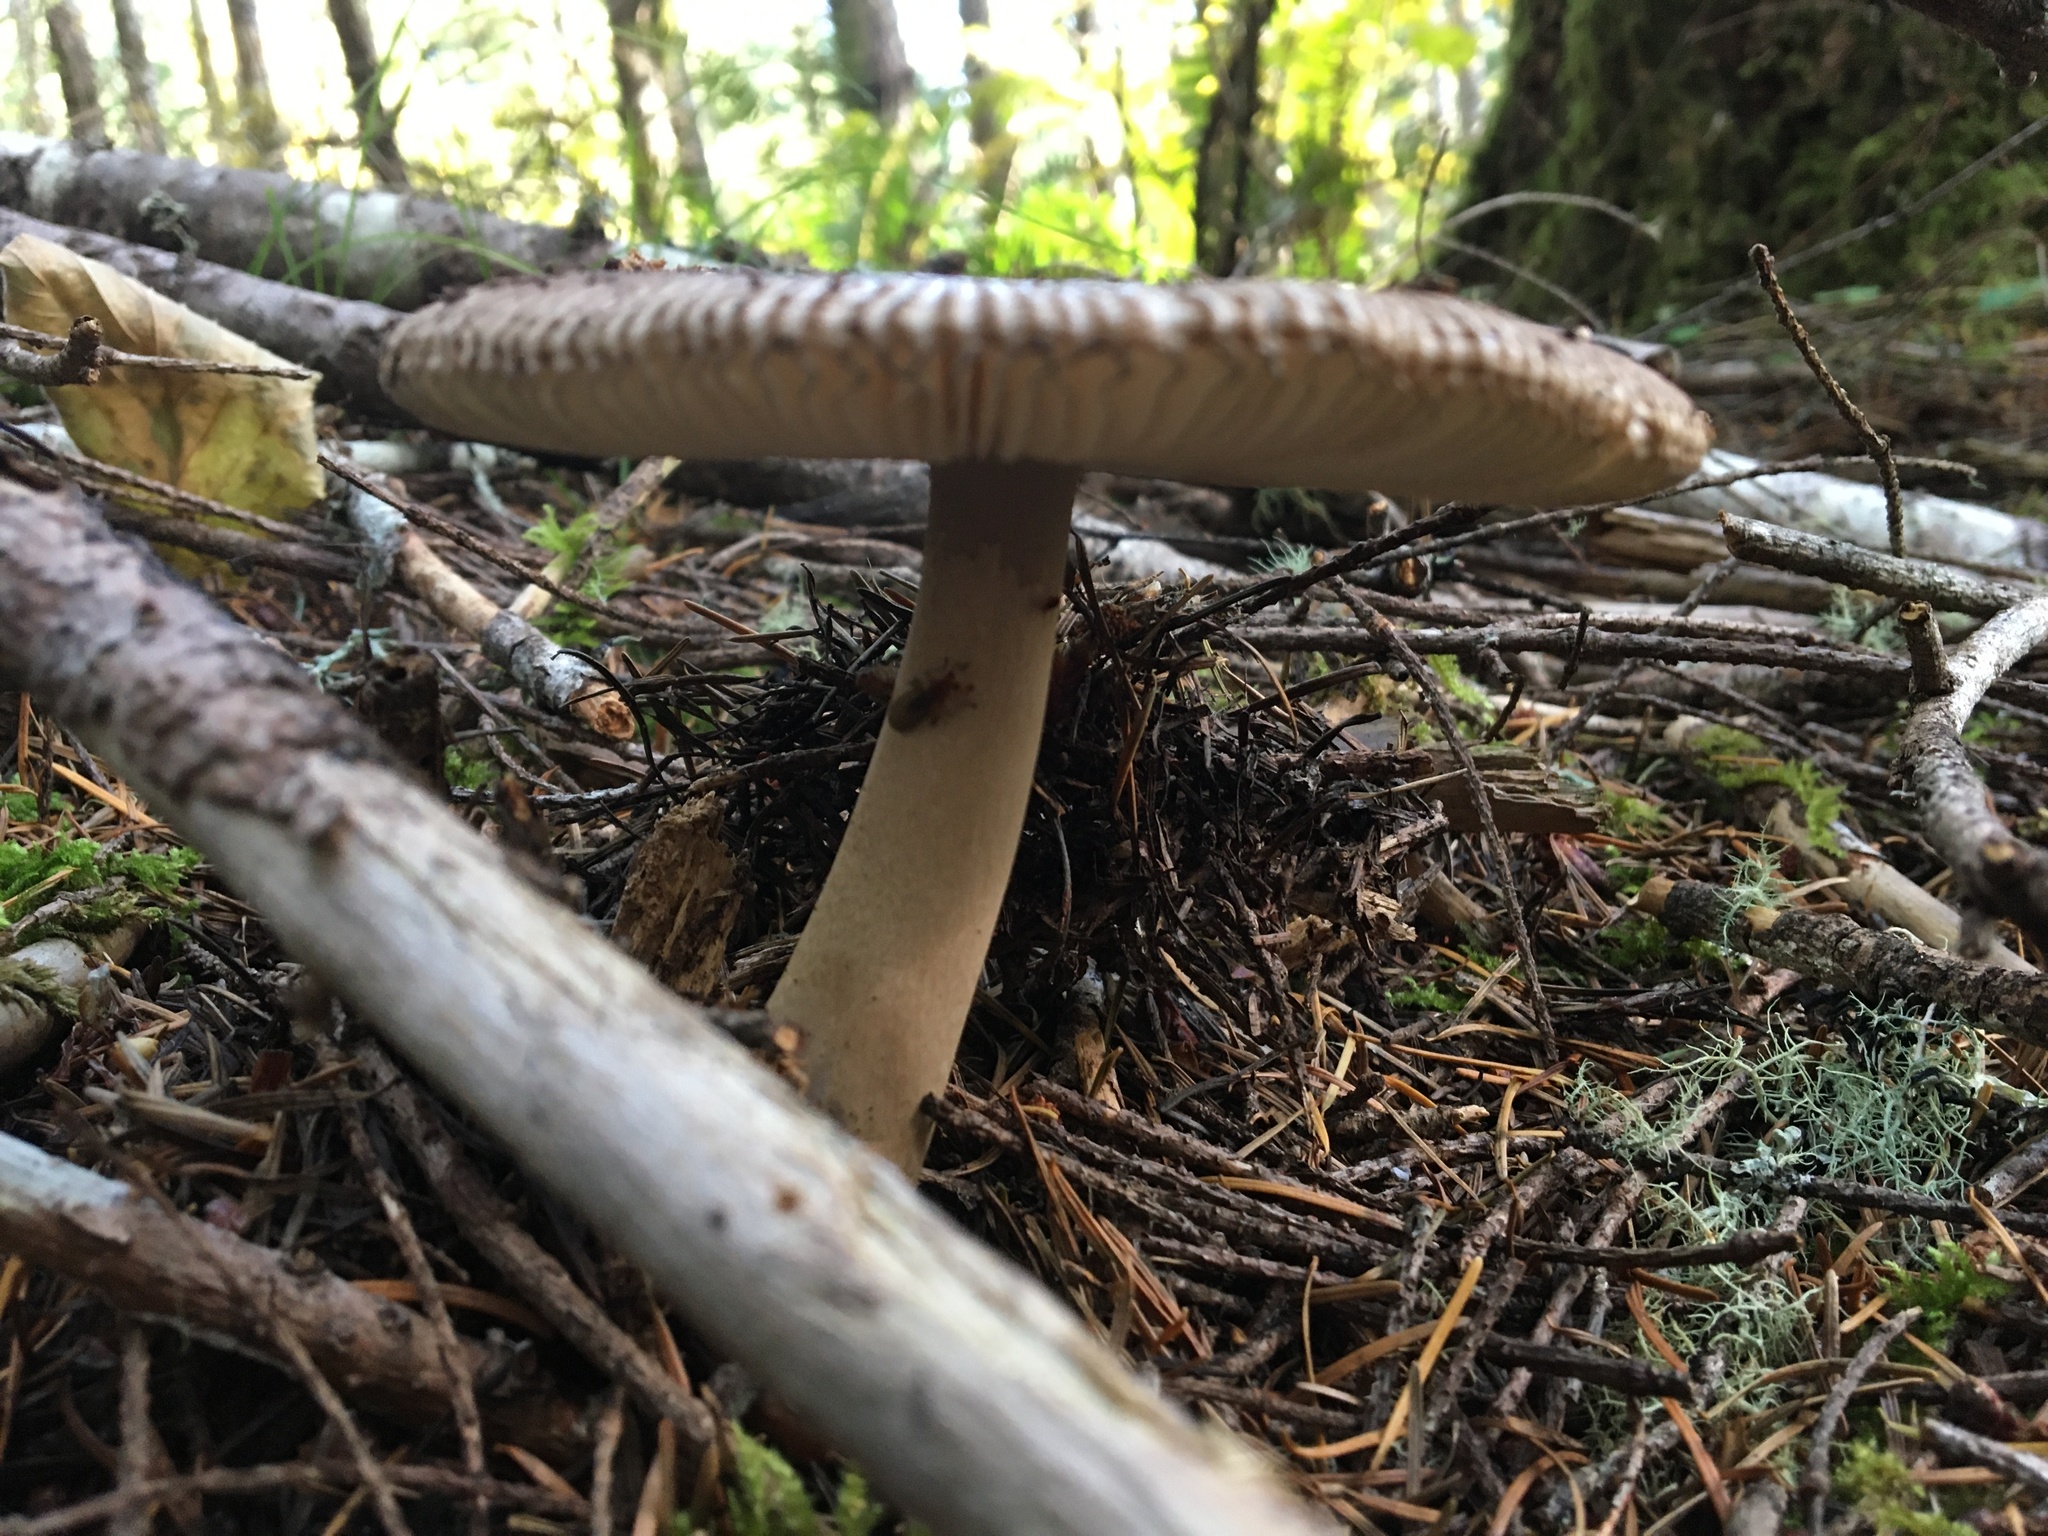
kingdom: Fungi
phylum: Basidiomycota
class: Agaricomycetes
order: Agaricales
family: Amanitaceae
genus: Amanita
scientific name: Amanita pachycolea
